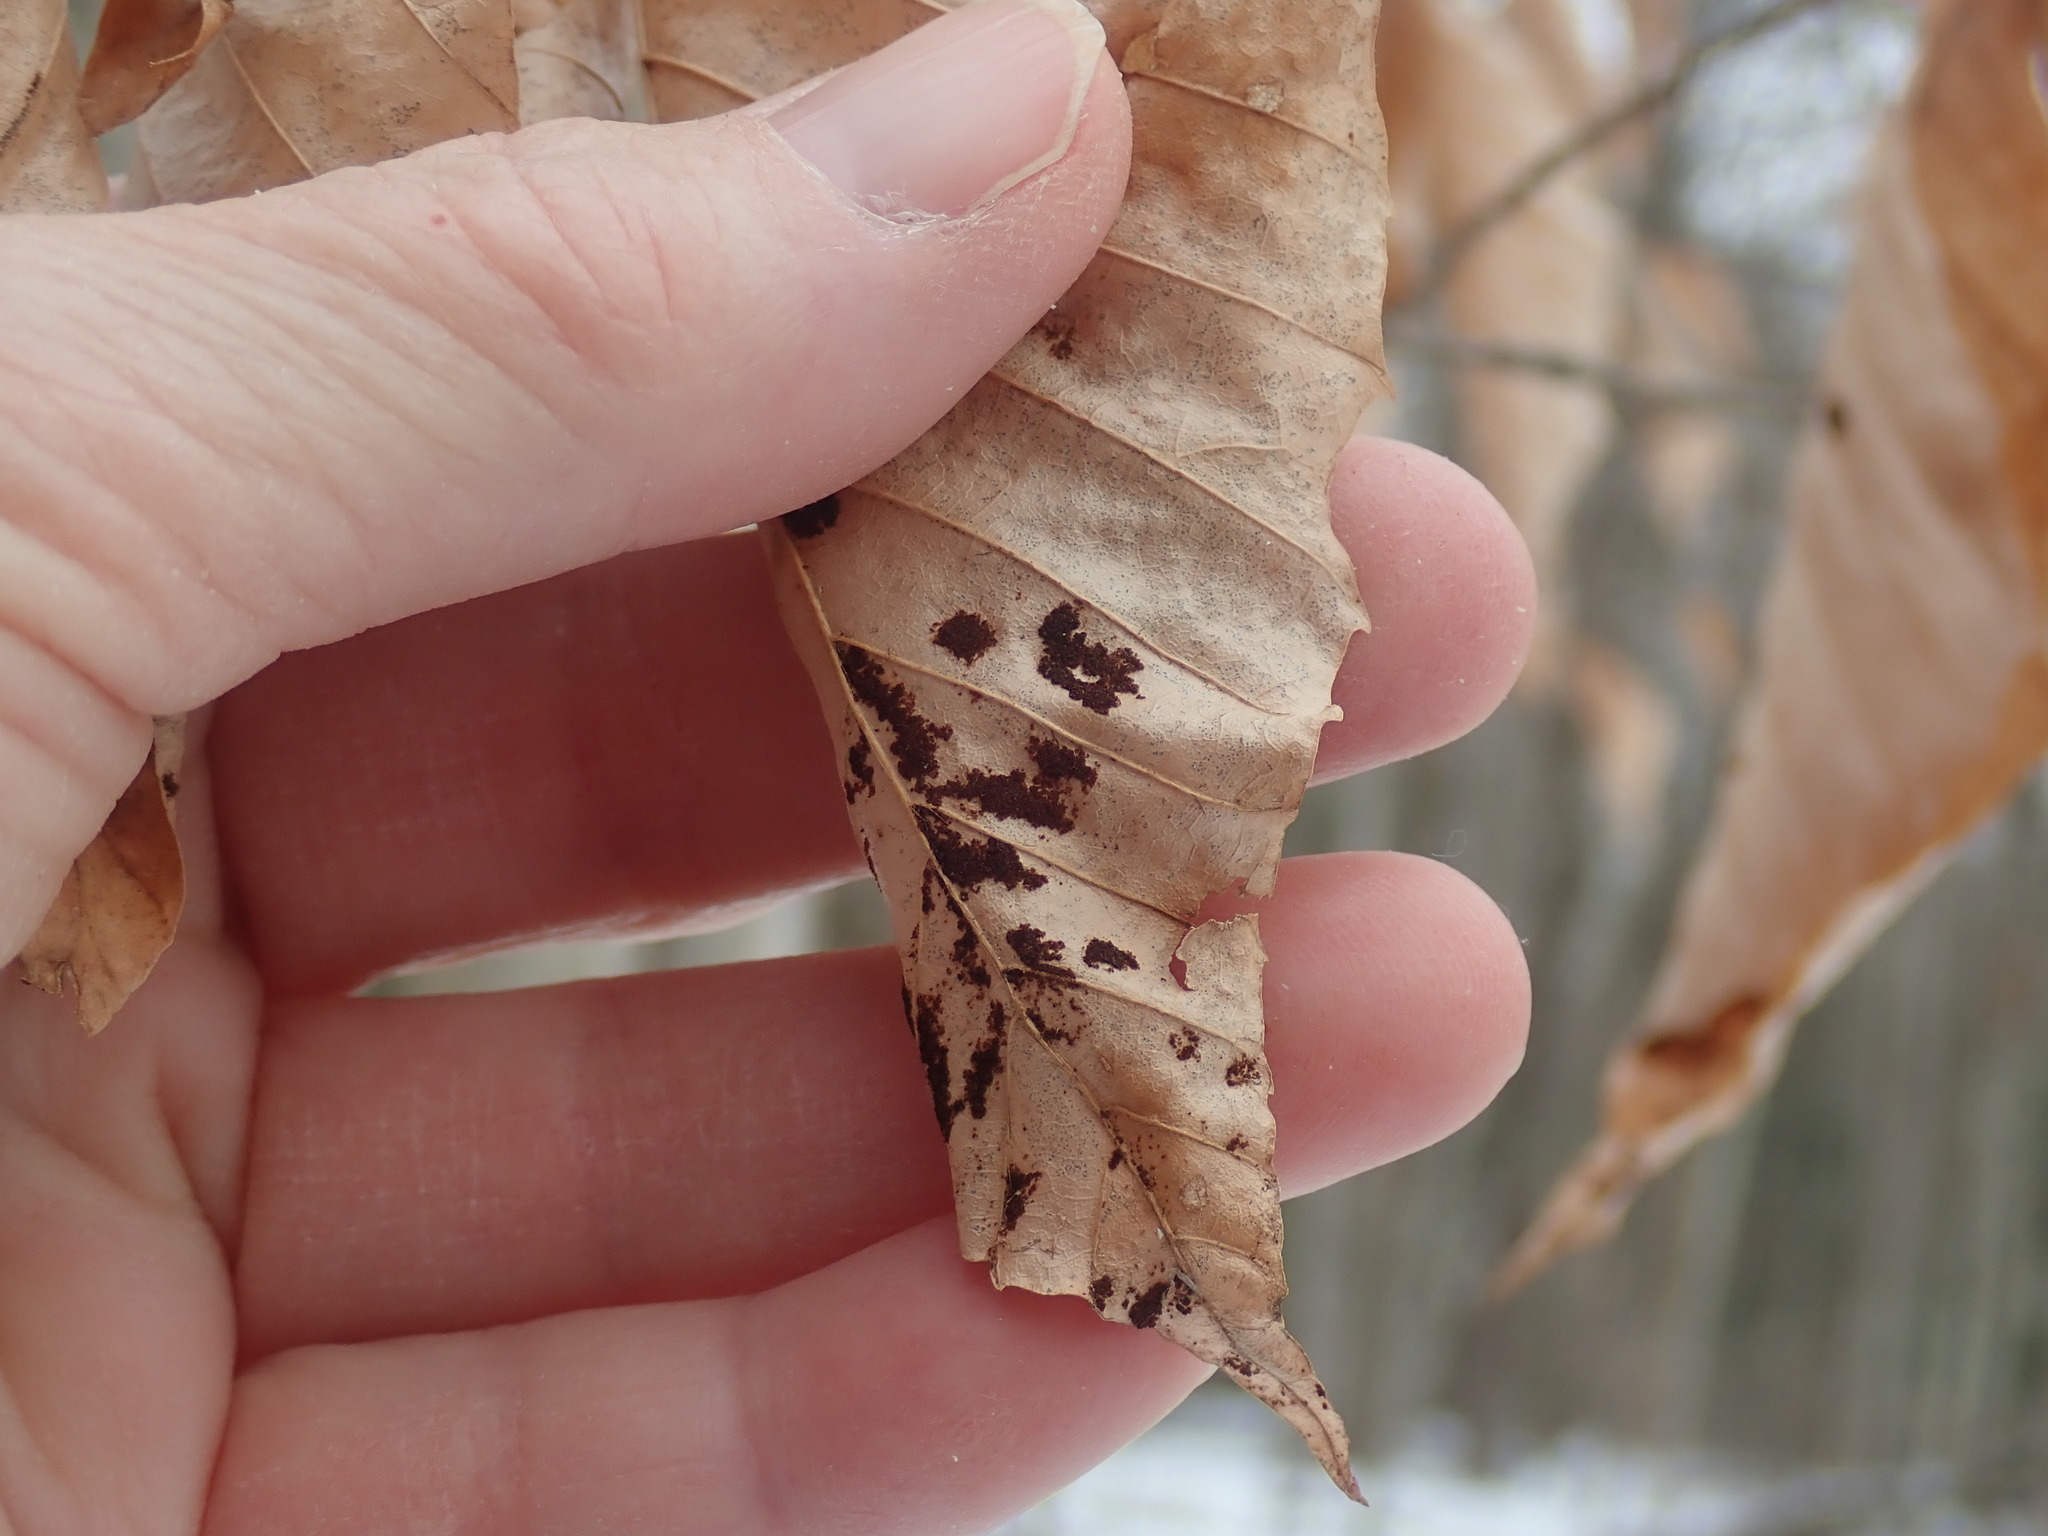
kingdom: Animalia
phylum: Arthropoda
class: Arachnida
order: Trombidiformes
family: Eriophyidae
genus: Acalitus
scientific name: Acalitus
